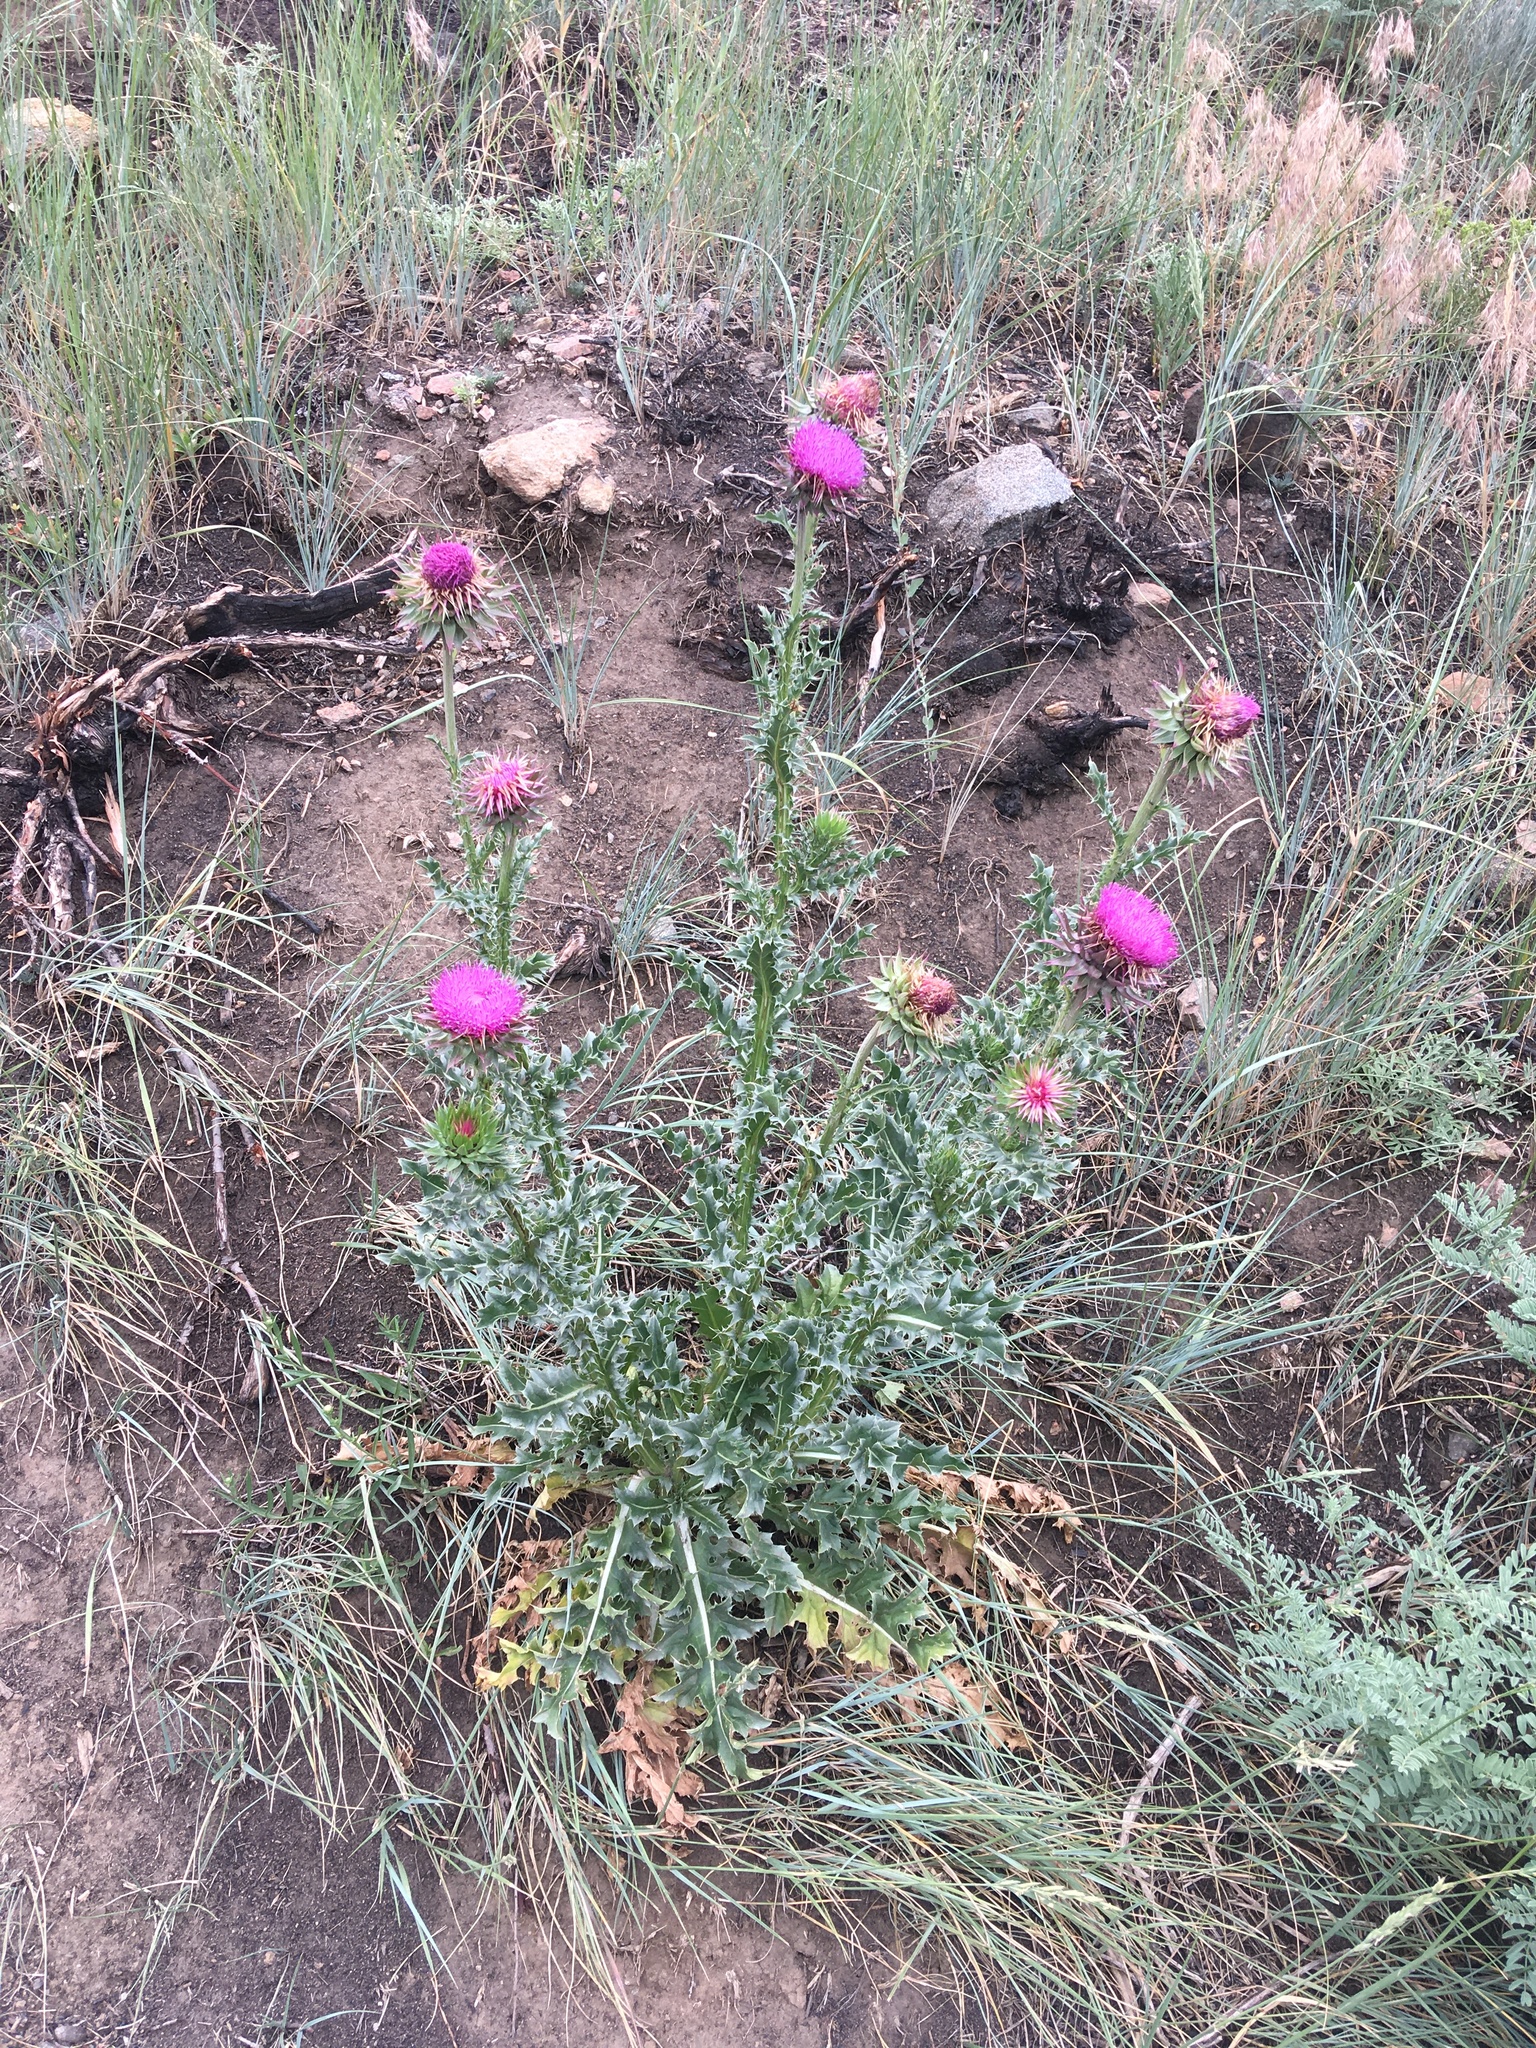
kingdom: Plantae
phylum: Tracheophyta
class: Magnoliopsida
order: Asterales
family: Asteraceae
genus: Carduus
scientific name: Carduus nutans
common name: Musk thistle
